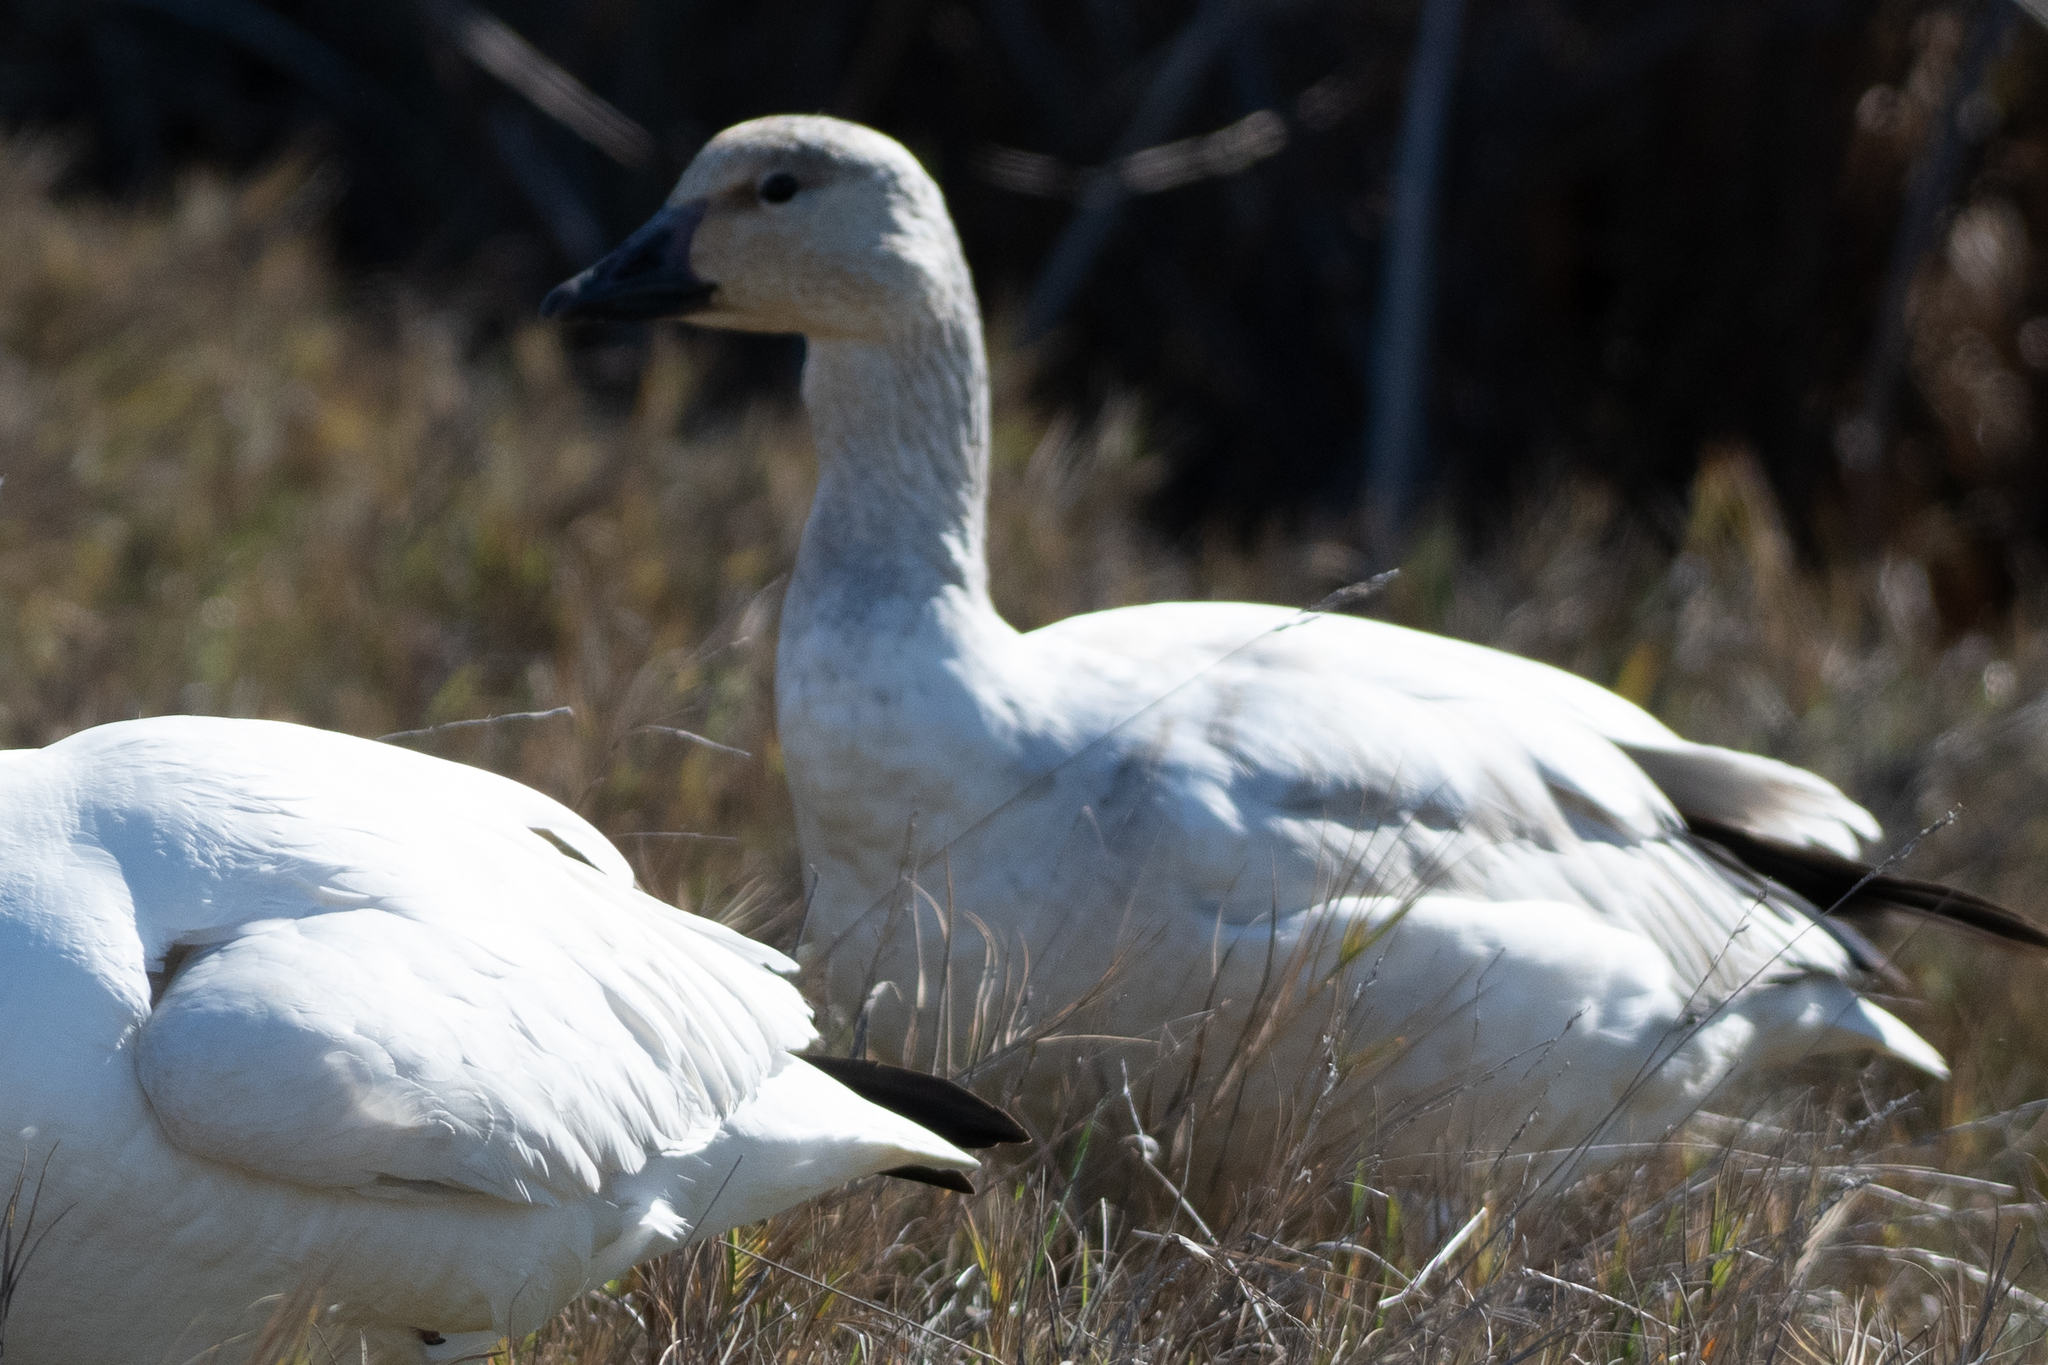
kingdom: Animalia
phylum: Chordata
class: Aves
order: Anseriformes
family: Anatidae
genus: Anser
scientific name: Anser caerulescens
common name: Snow goose
